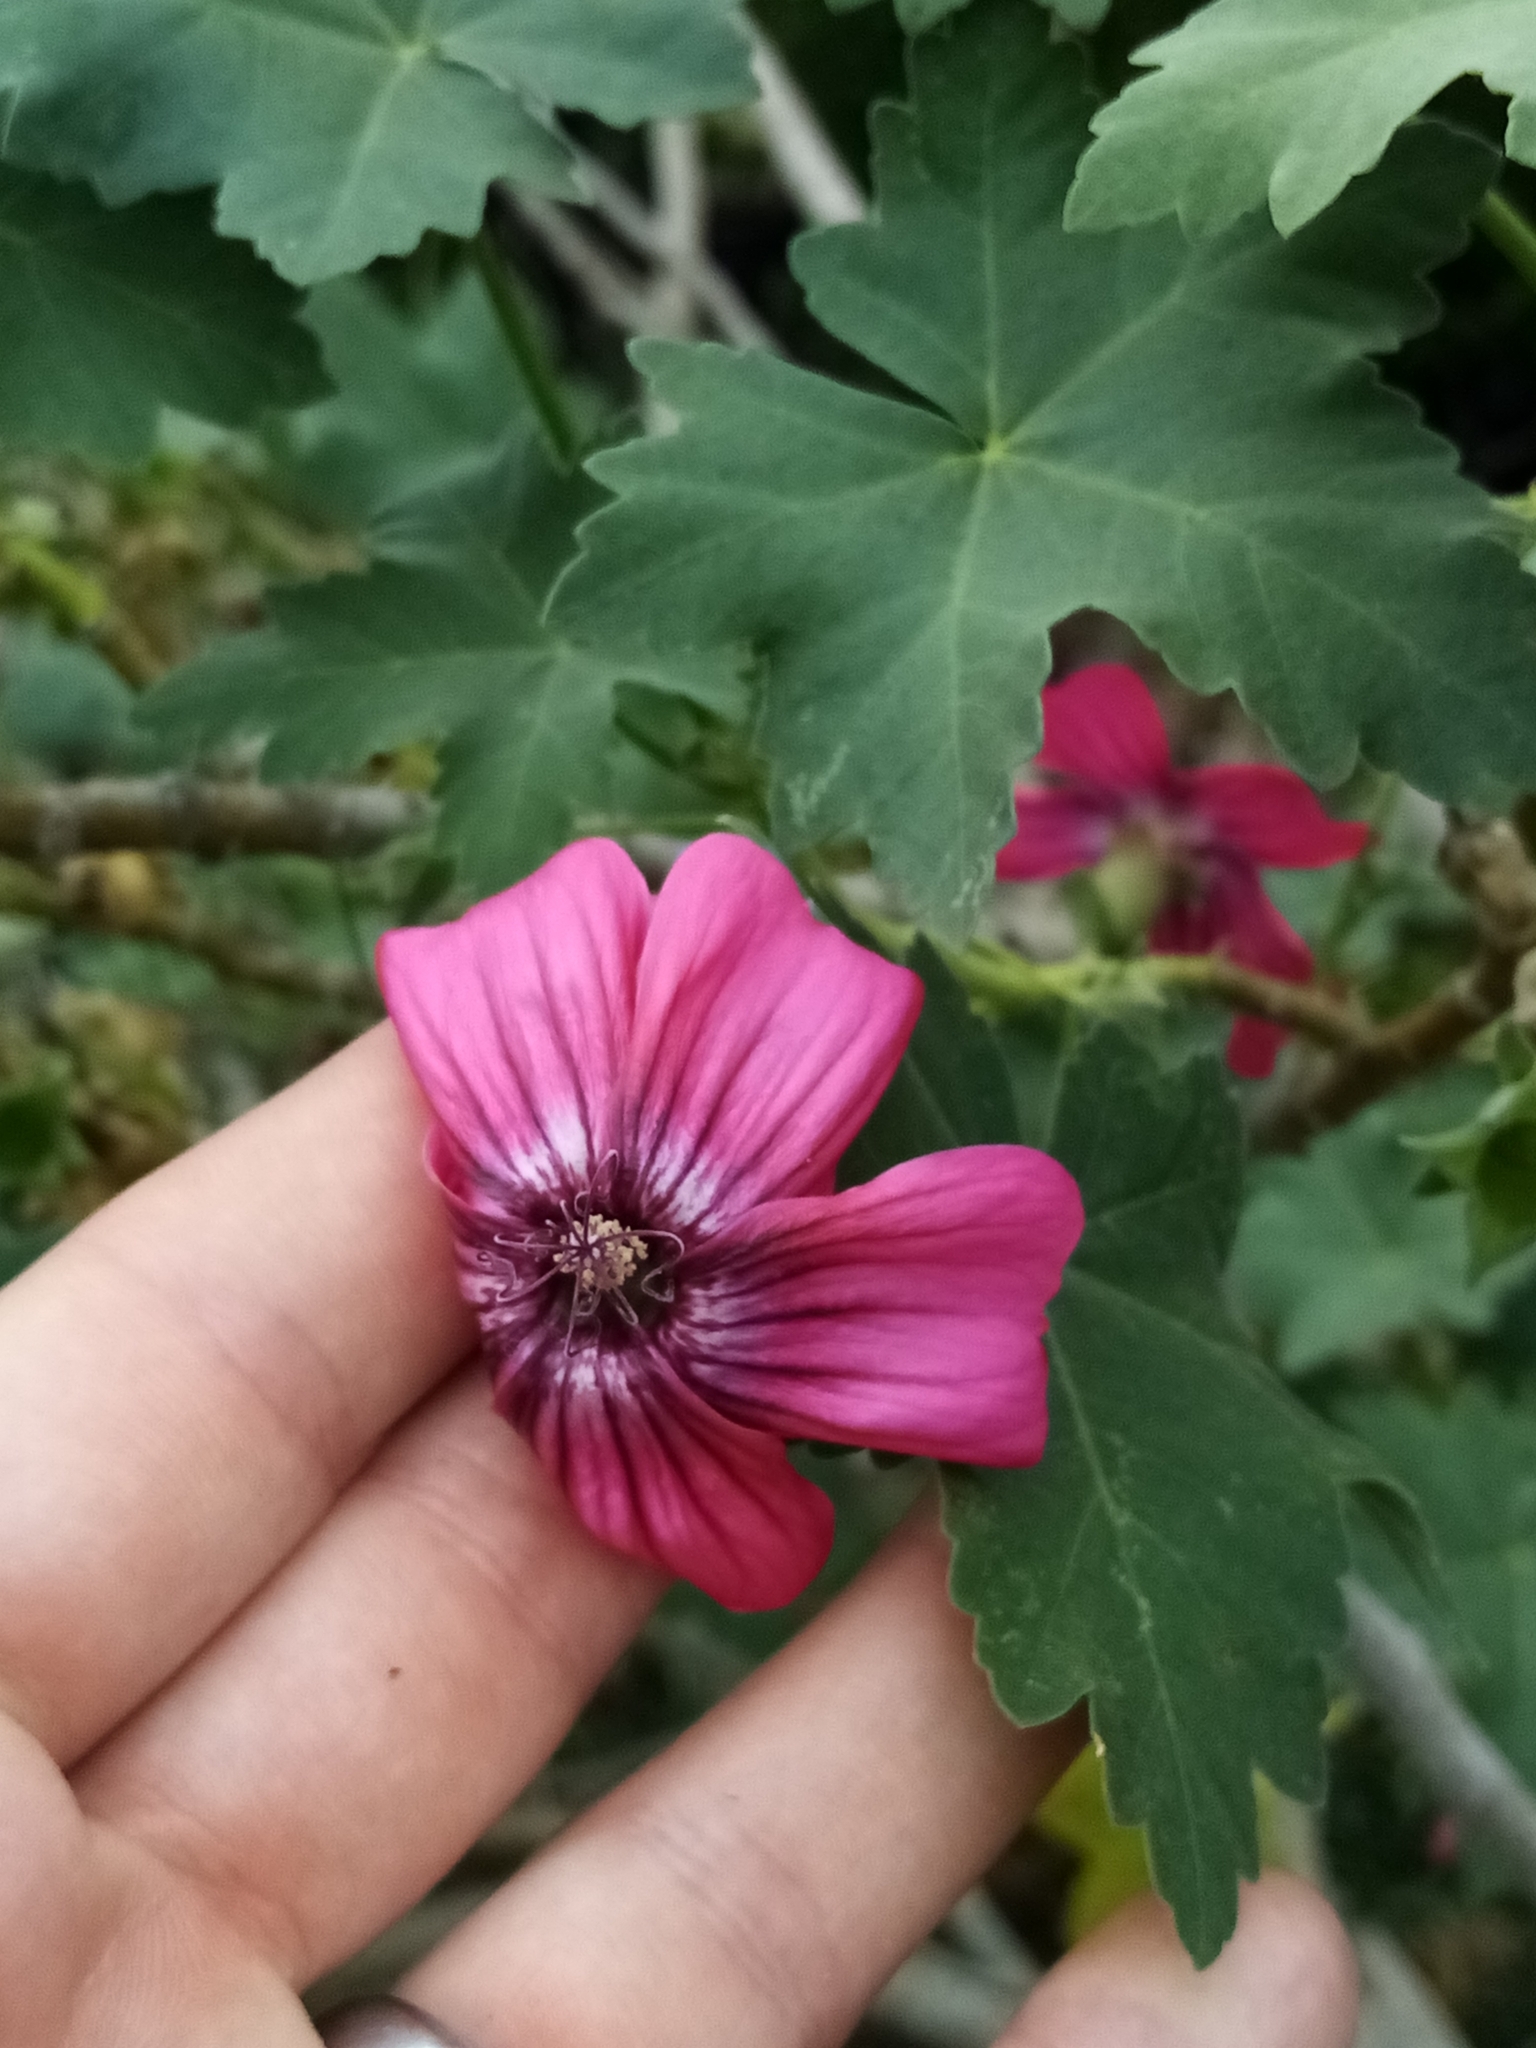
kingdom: Plantae
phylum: Tracheophyta
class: Magnoliopsida
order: Malvales
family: Malvaceae
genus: Malva
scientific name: Malva assurgentiflora
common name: Island mallow
